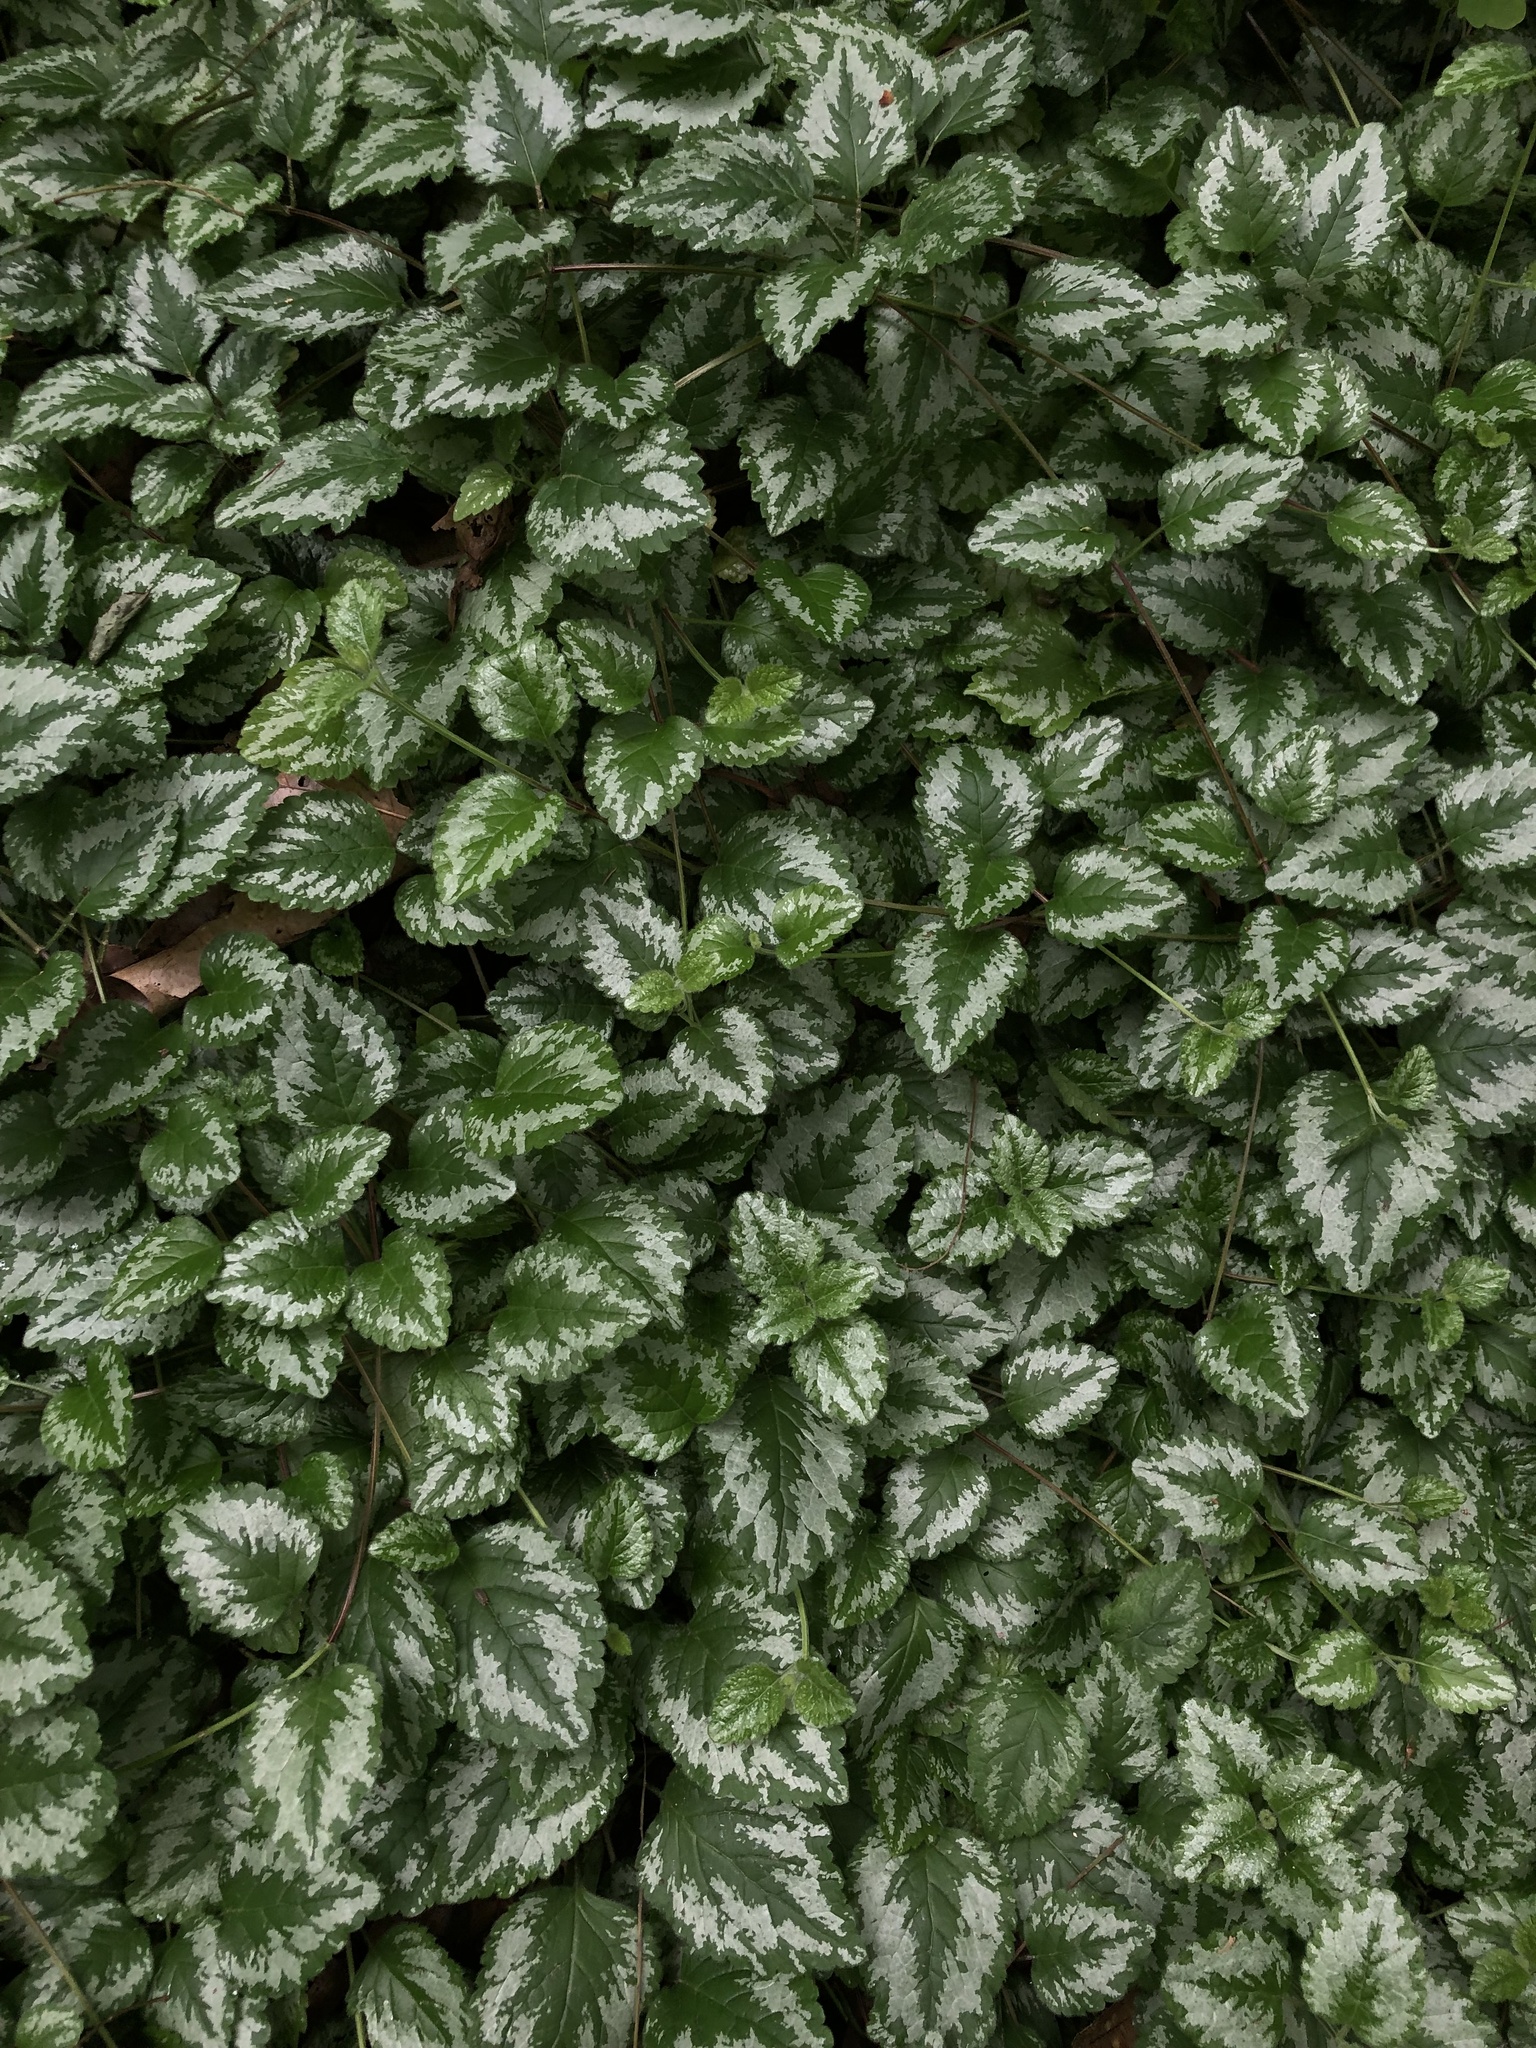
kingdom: Plantae
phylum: Tracheophyta
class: Magnoliopsida
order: Lamiales
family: Lamiaceae
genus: Lamium
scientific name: Lamium galeobdolon
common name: Yellow archangel
